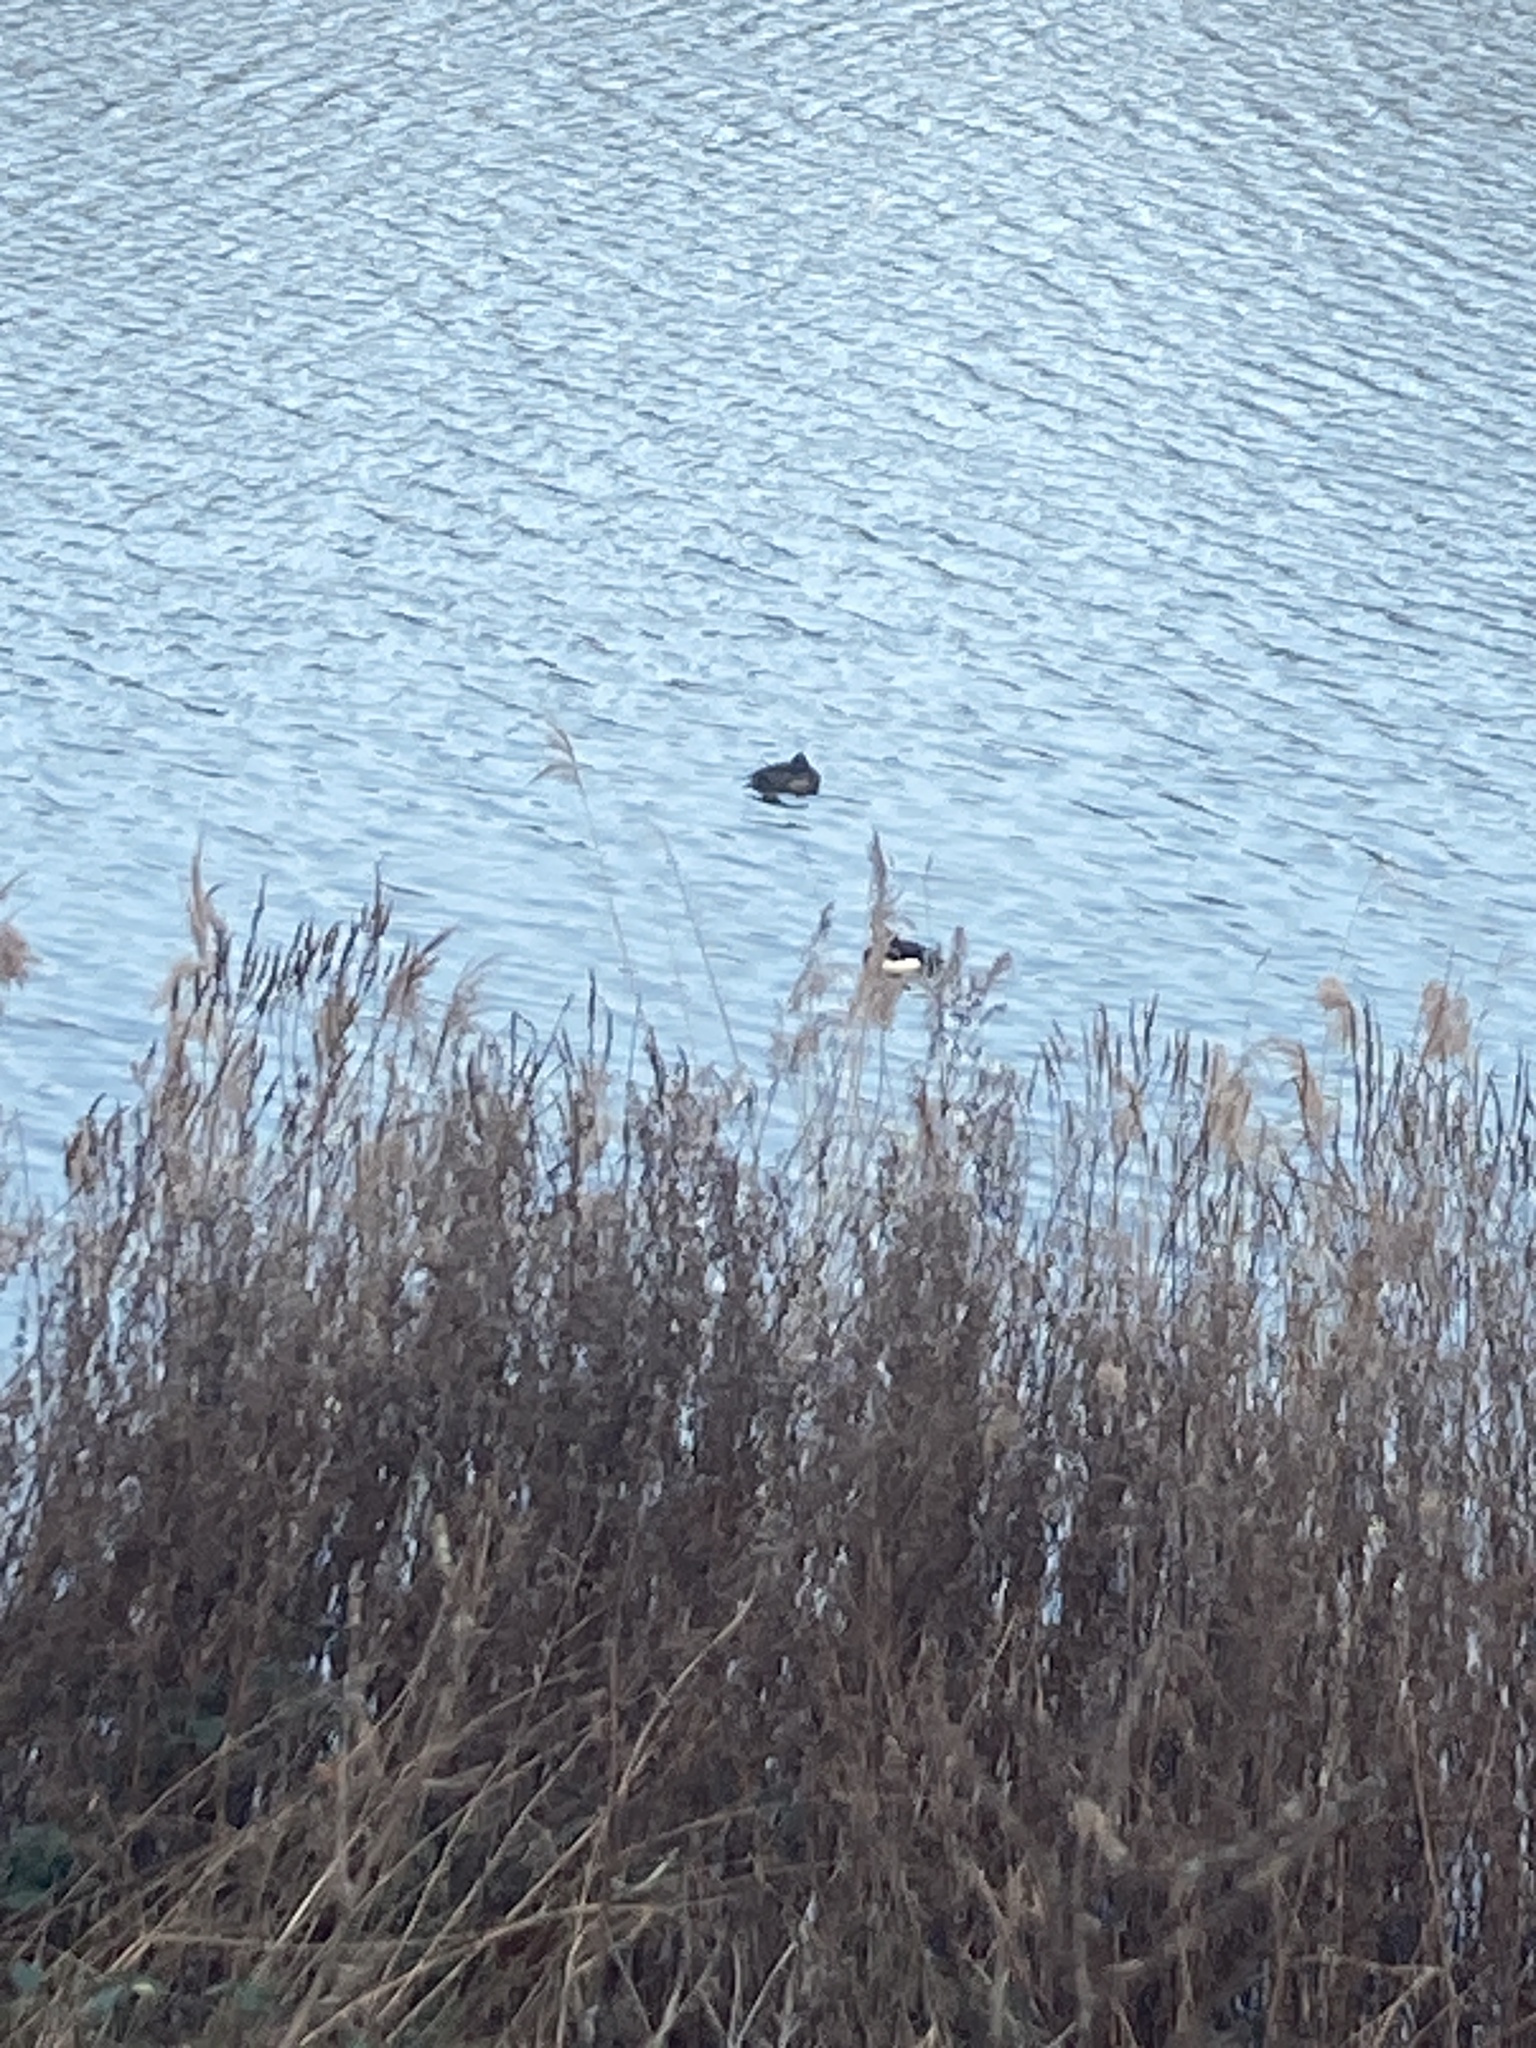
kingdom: Animalia
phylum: Chordata
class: Aves
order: Anseriformes
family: Anatidae
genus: Aythya
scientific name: Aythya fuligula
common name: Tufted duck
